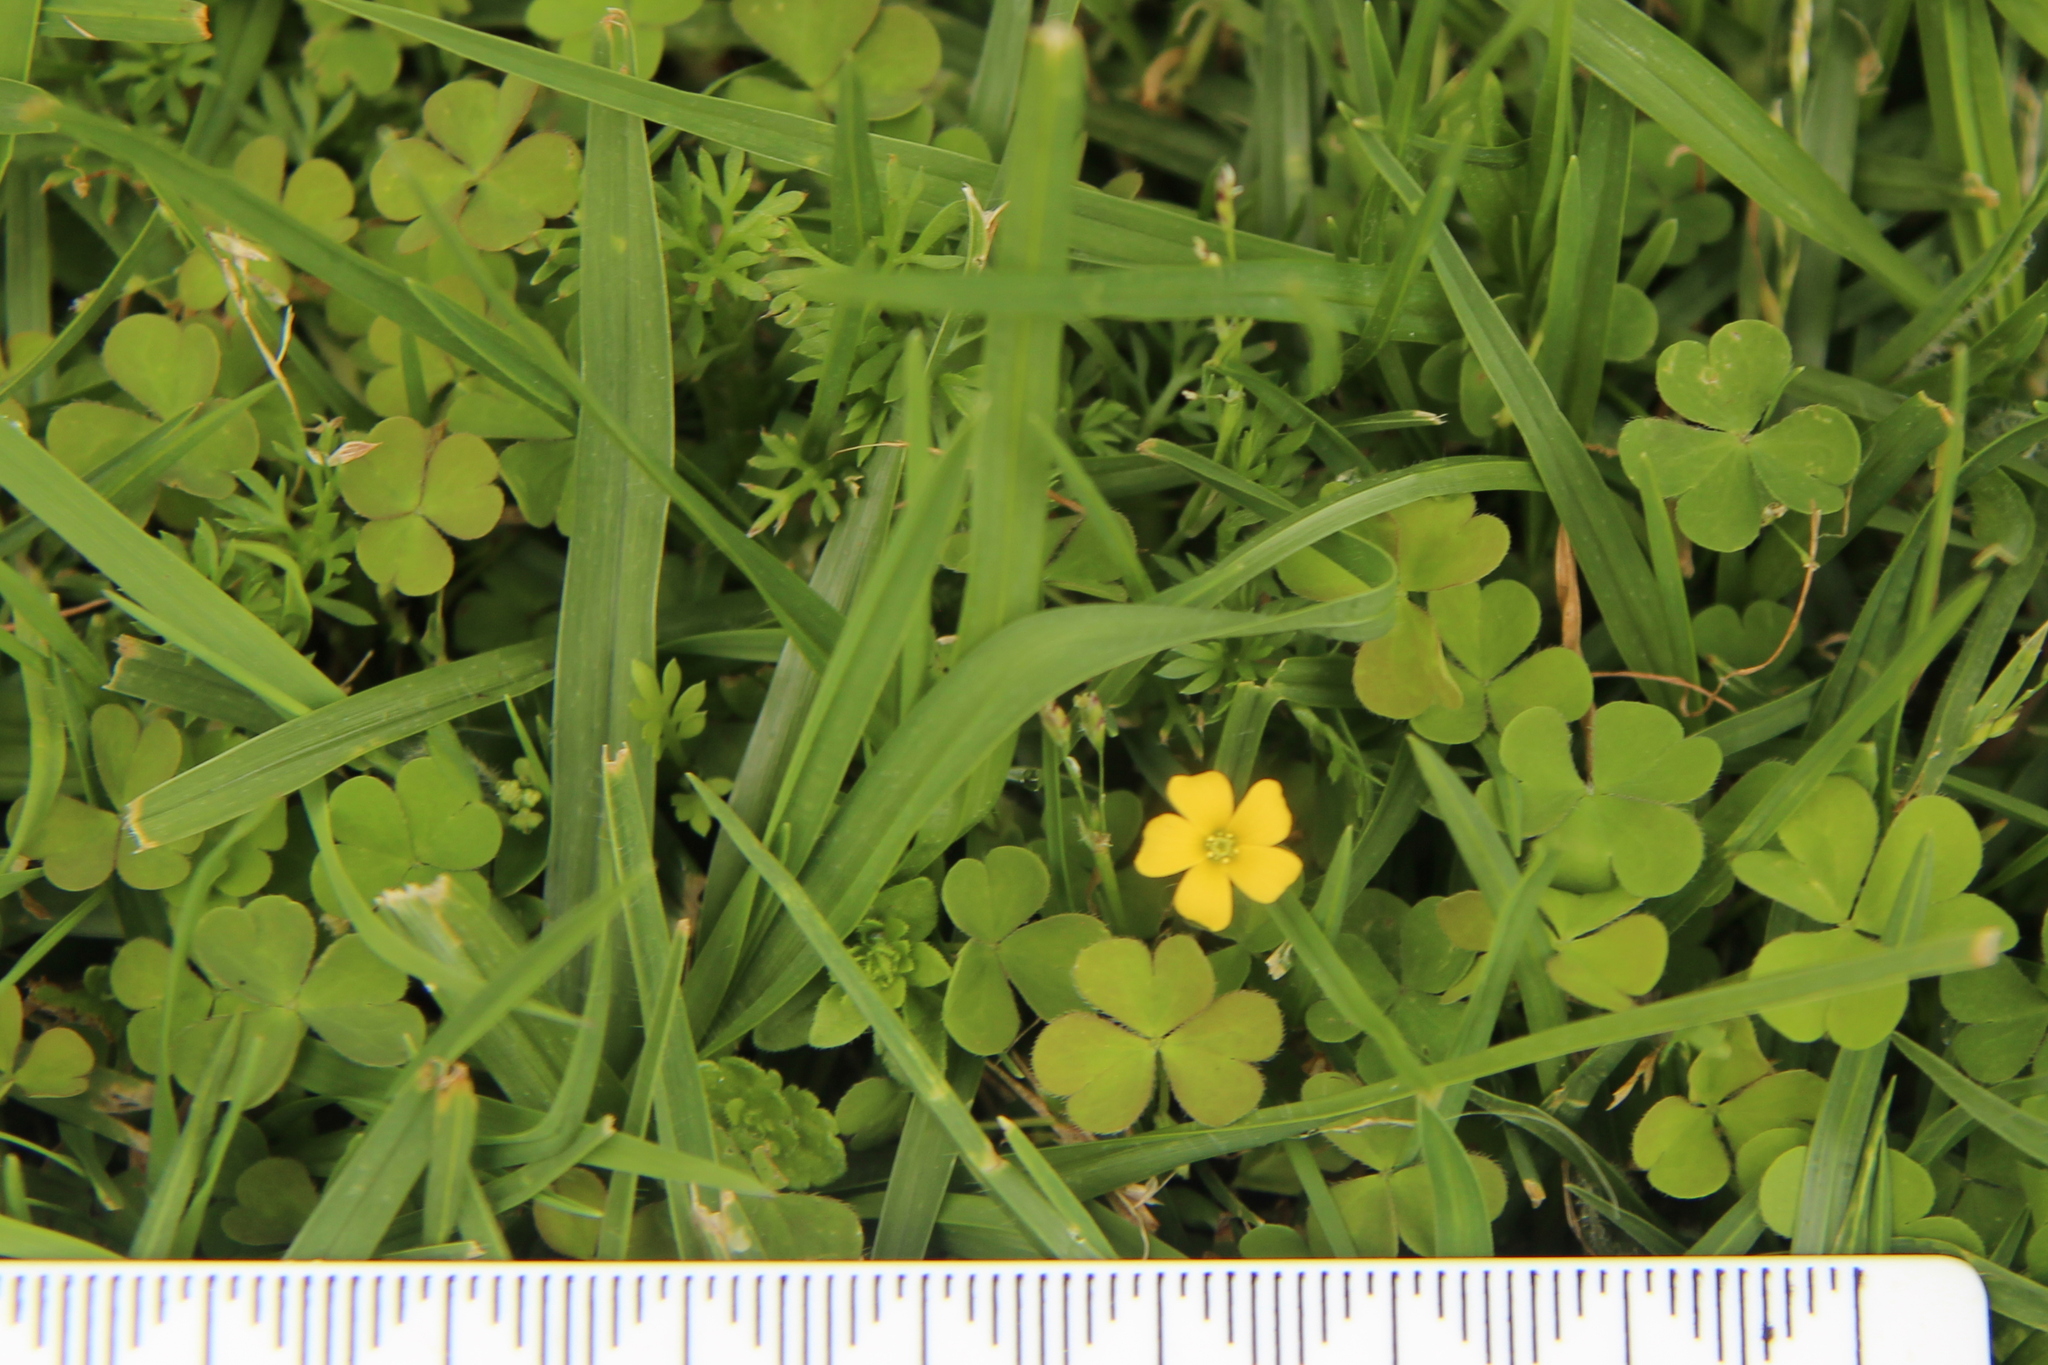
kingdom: Plantae
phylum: Tracheophyta
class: Magnoliopsida
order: Oxalidales
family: Oxalidaceae
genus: Oxalis
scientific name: Oxalis exilis
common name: Least yellow-sorrel
